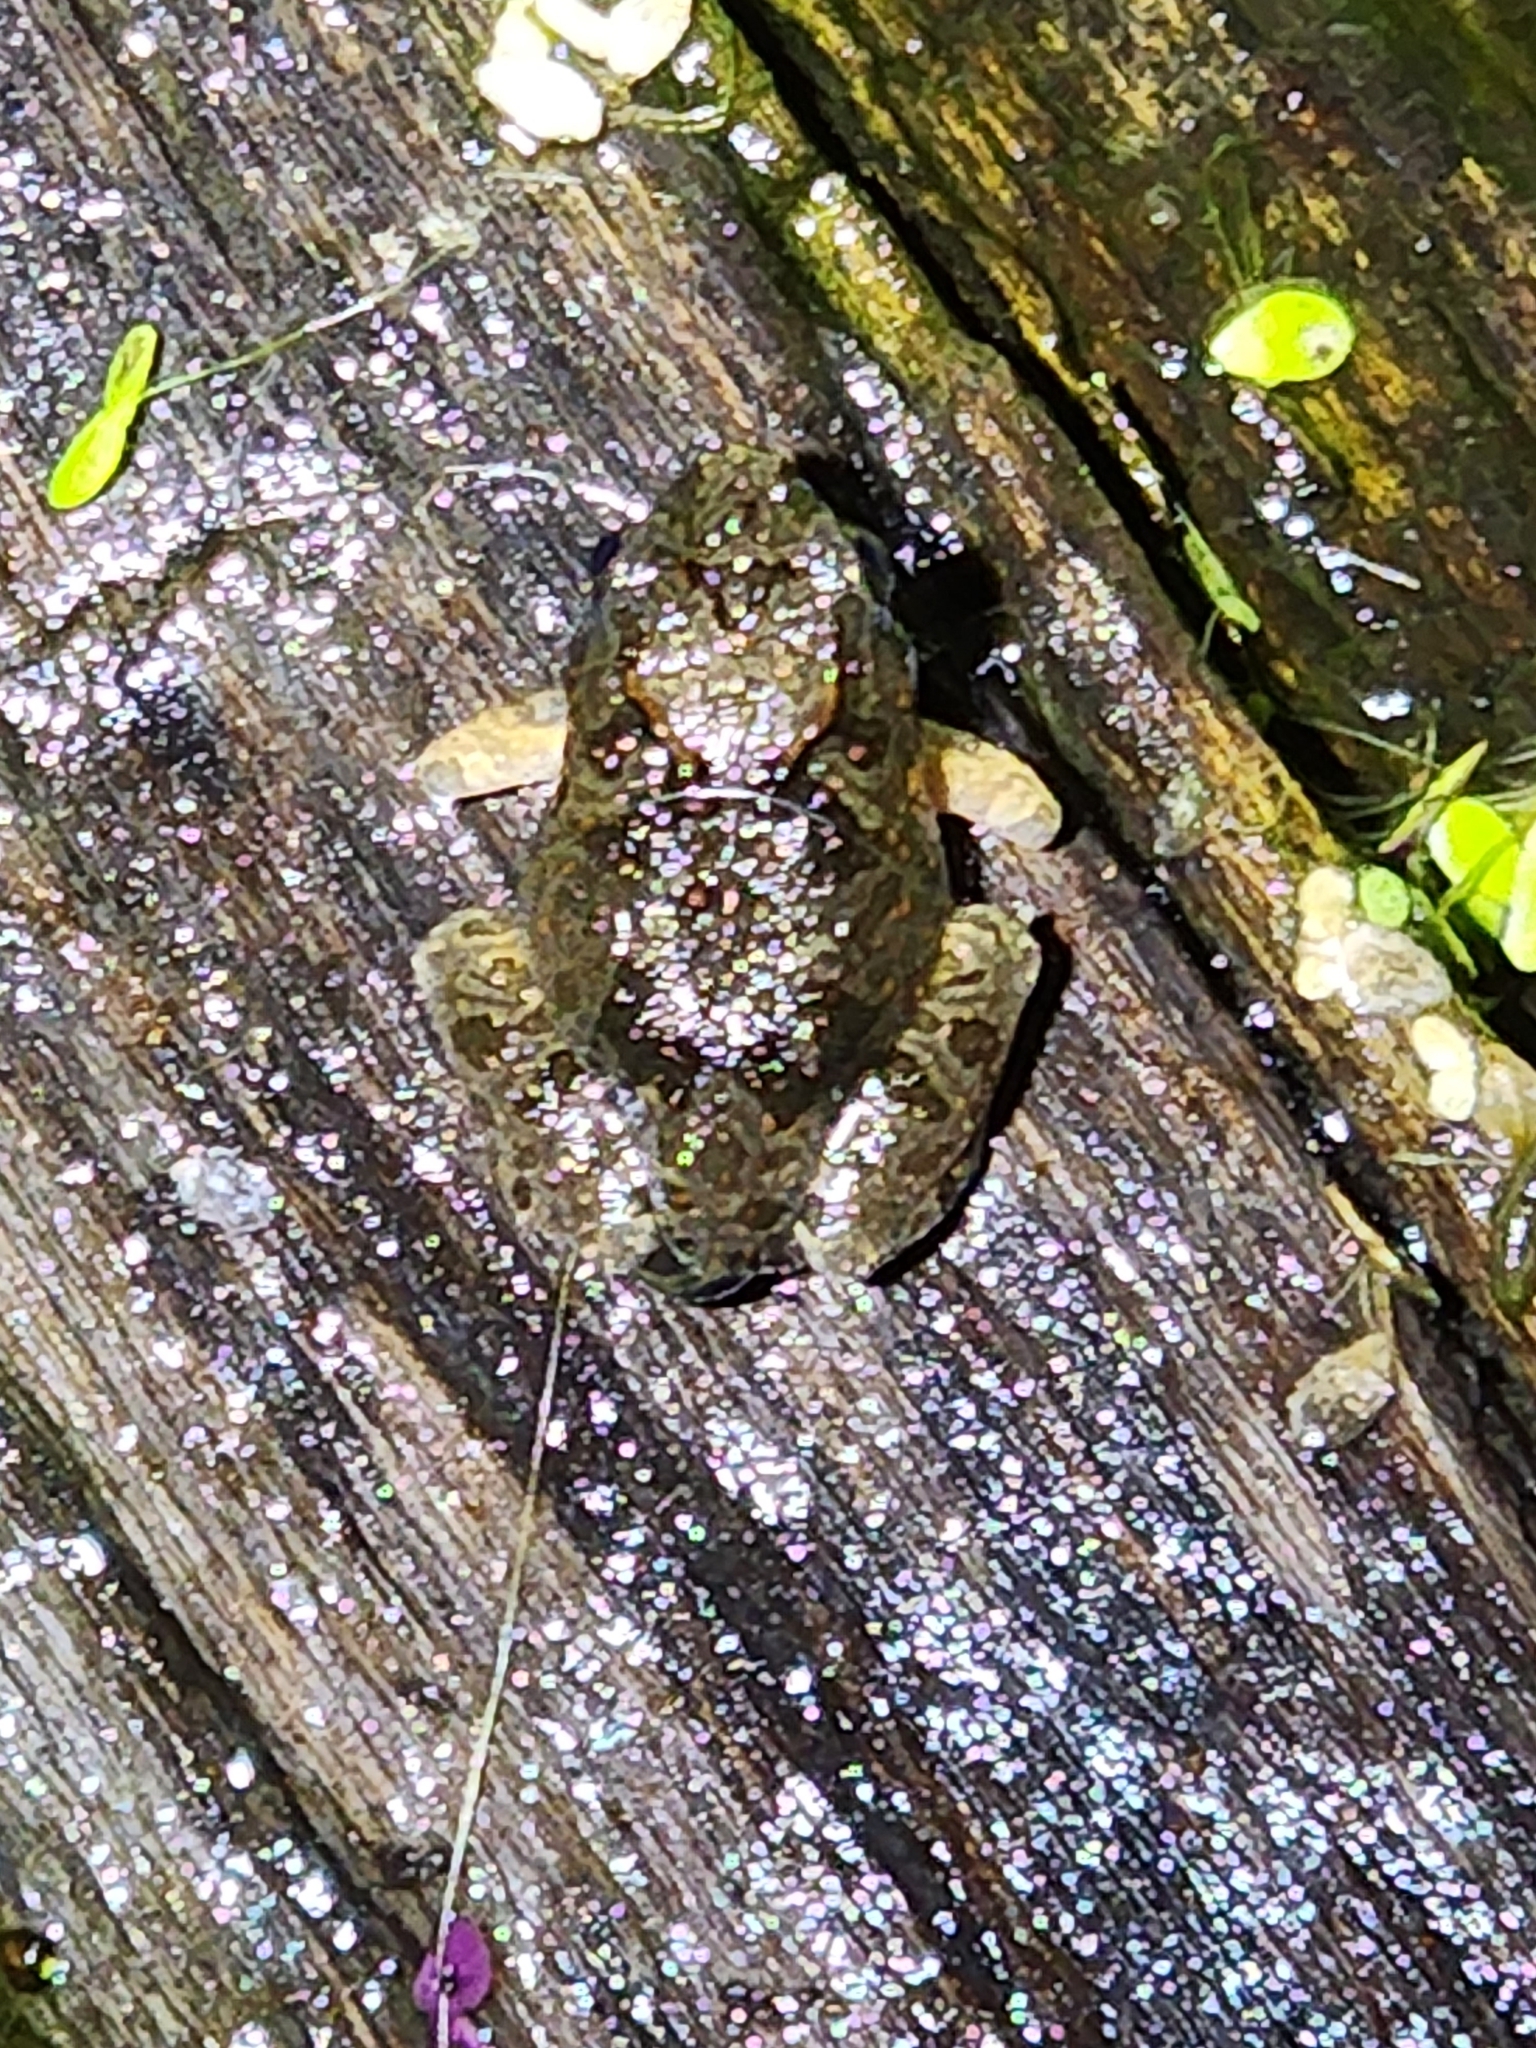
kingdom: Animalia
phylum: Chordata
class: Amphibia
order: Anura
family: Limnodynastidae
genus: Platyplectrum
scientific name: Platyplectrum ornatum
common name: Ornate burrowing frog
